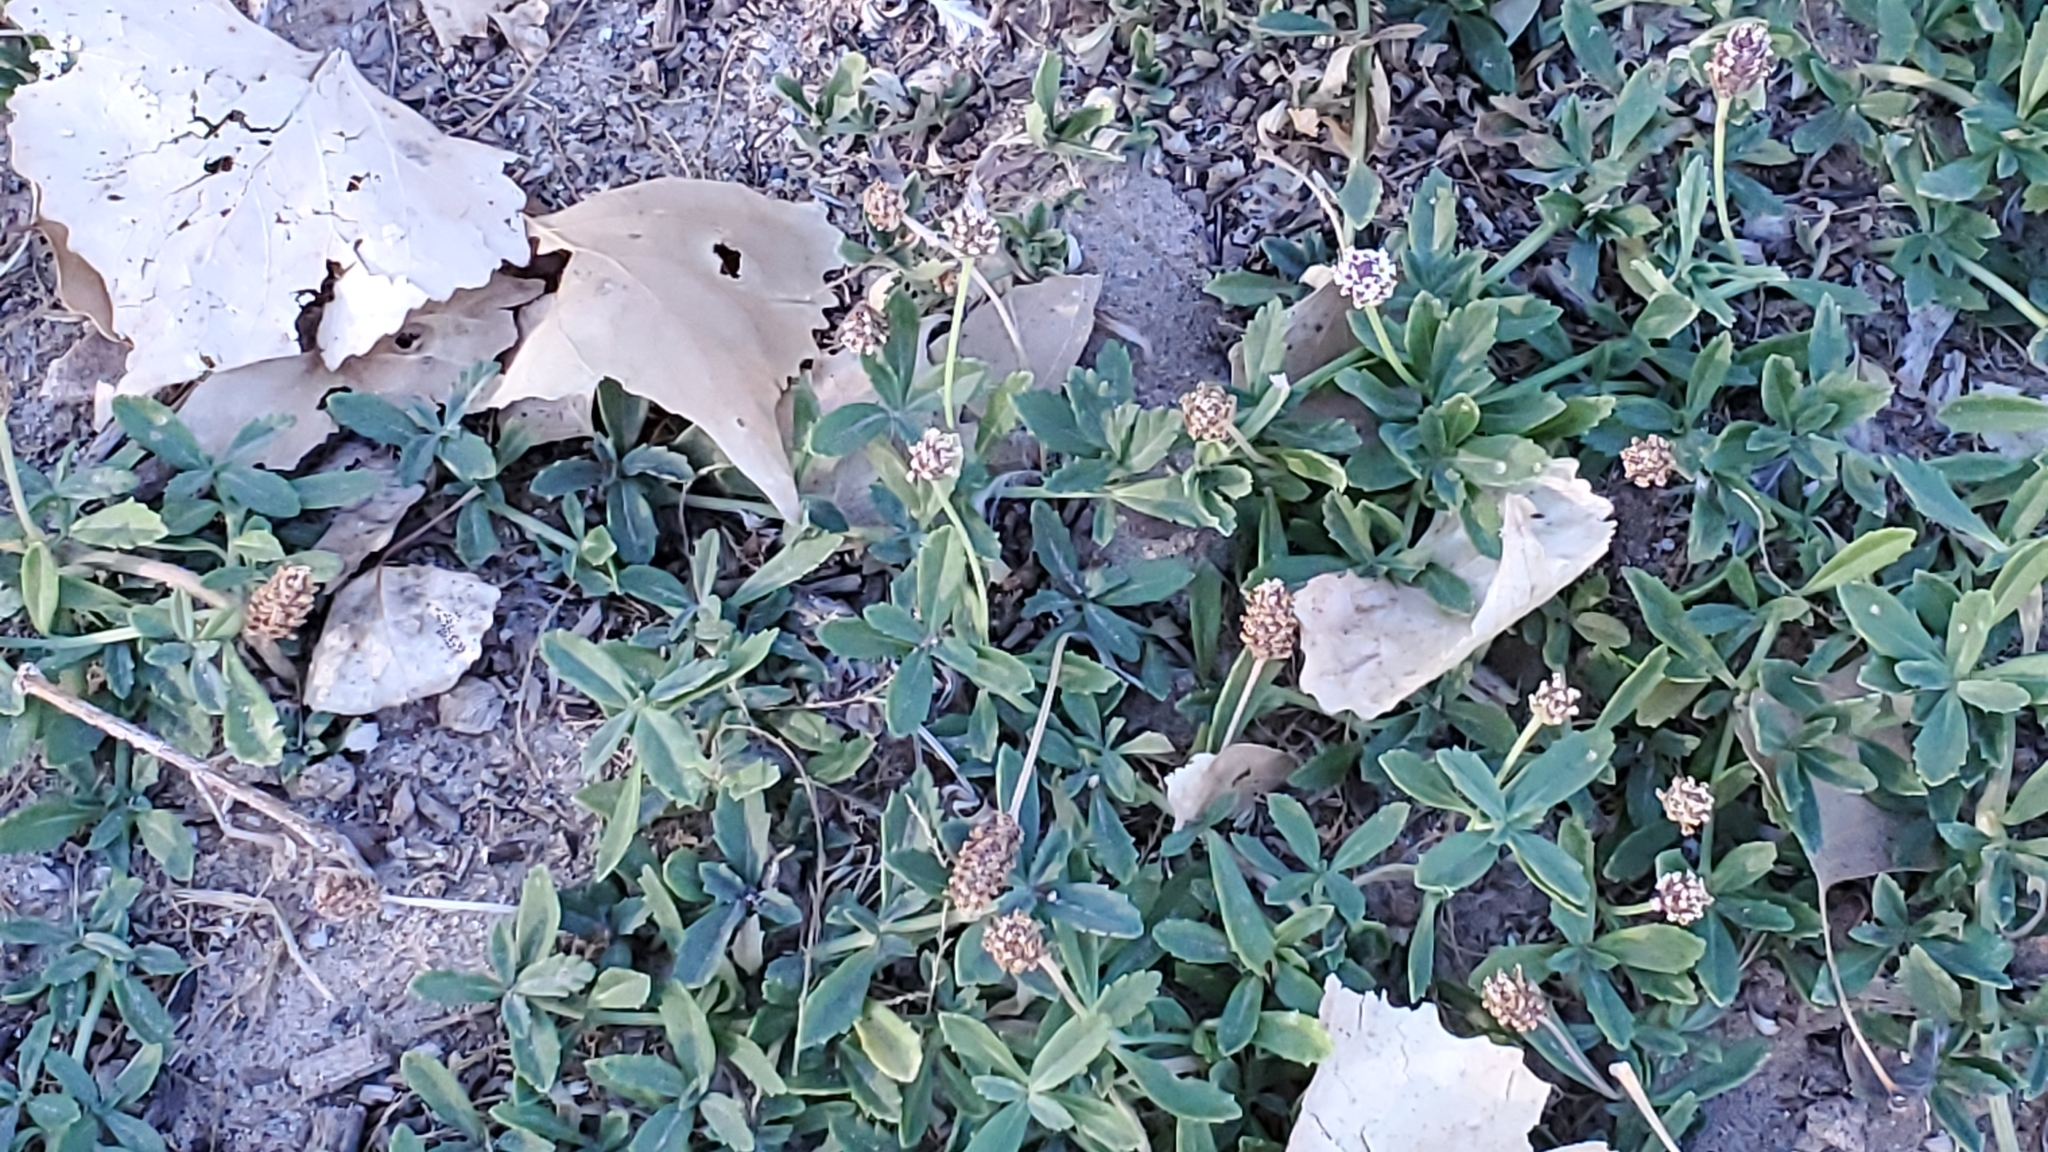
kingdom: Plantae
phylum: Tracheophyta
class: Magnoliopsida
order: Lamiales
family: Verbenaceae
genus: Phyla
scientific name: Phyla nodiflora
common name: Frogfruit
